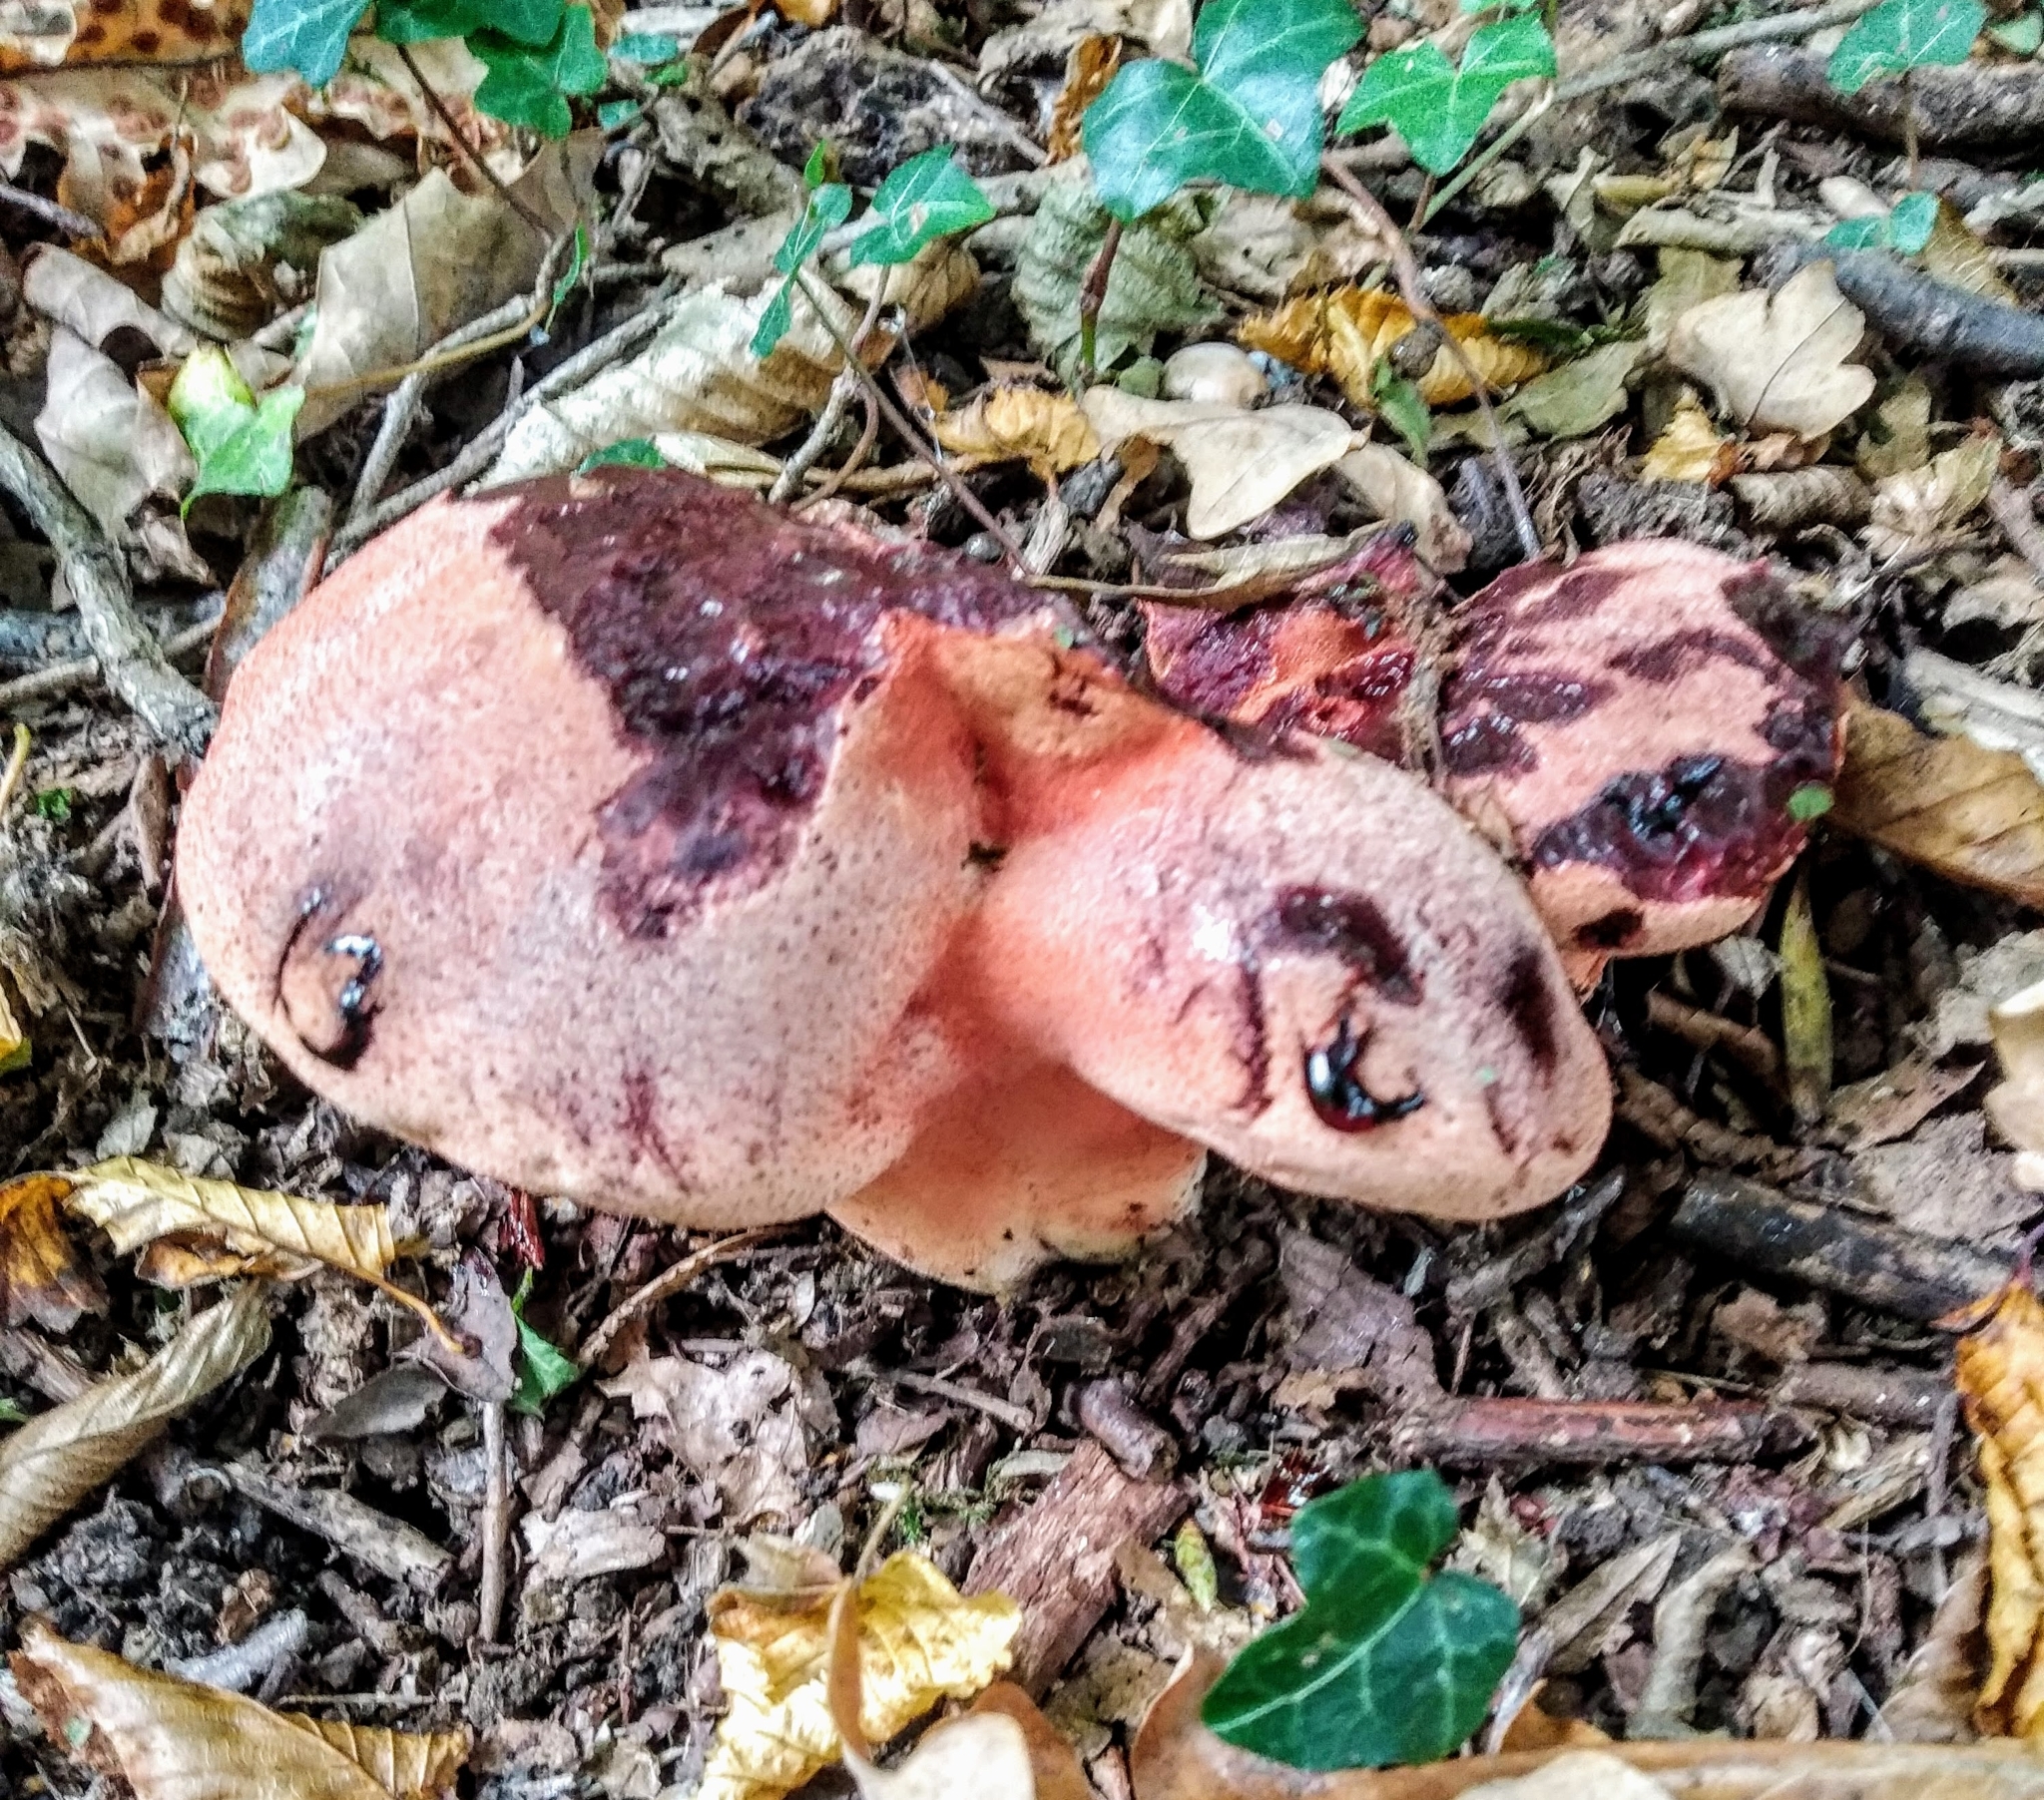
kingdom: Fungi
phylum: Basidiomycota
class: Agaricomycetes
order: Agaricales
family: Fistulinaceae
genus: Fistulina
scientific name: Fistulina hepatica
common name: Beef-steak fungus
